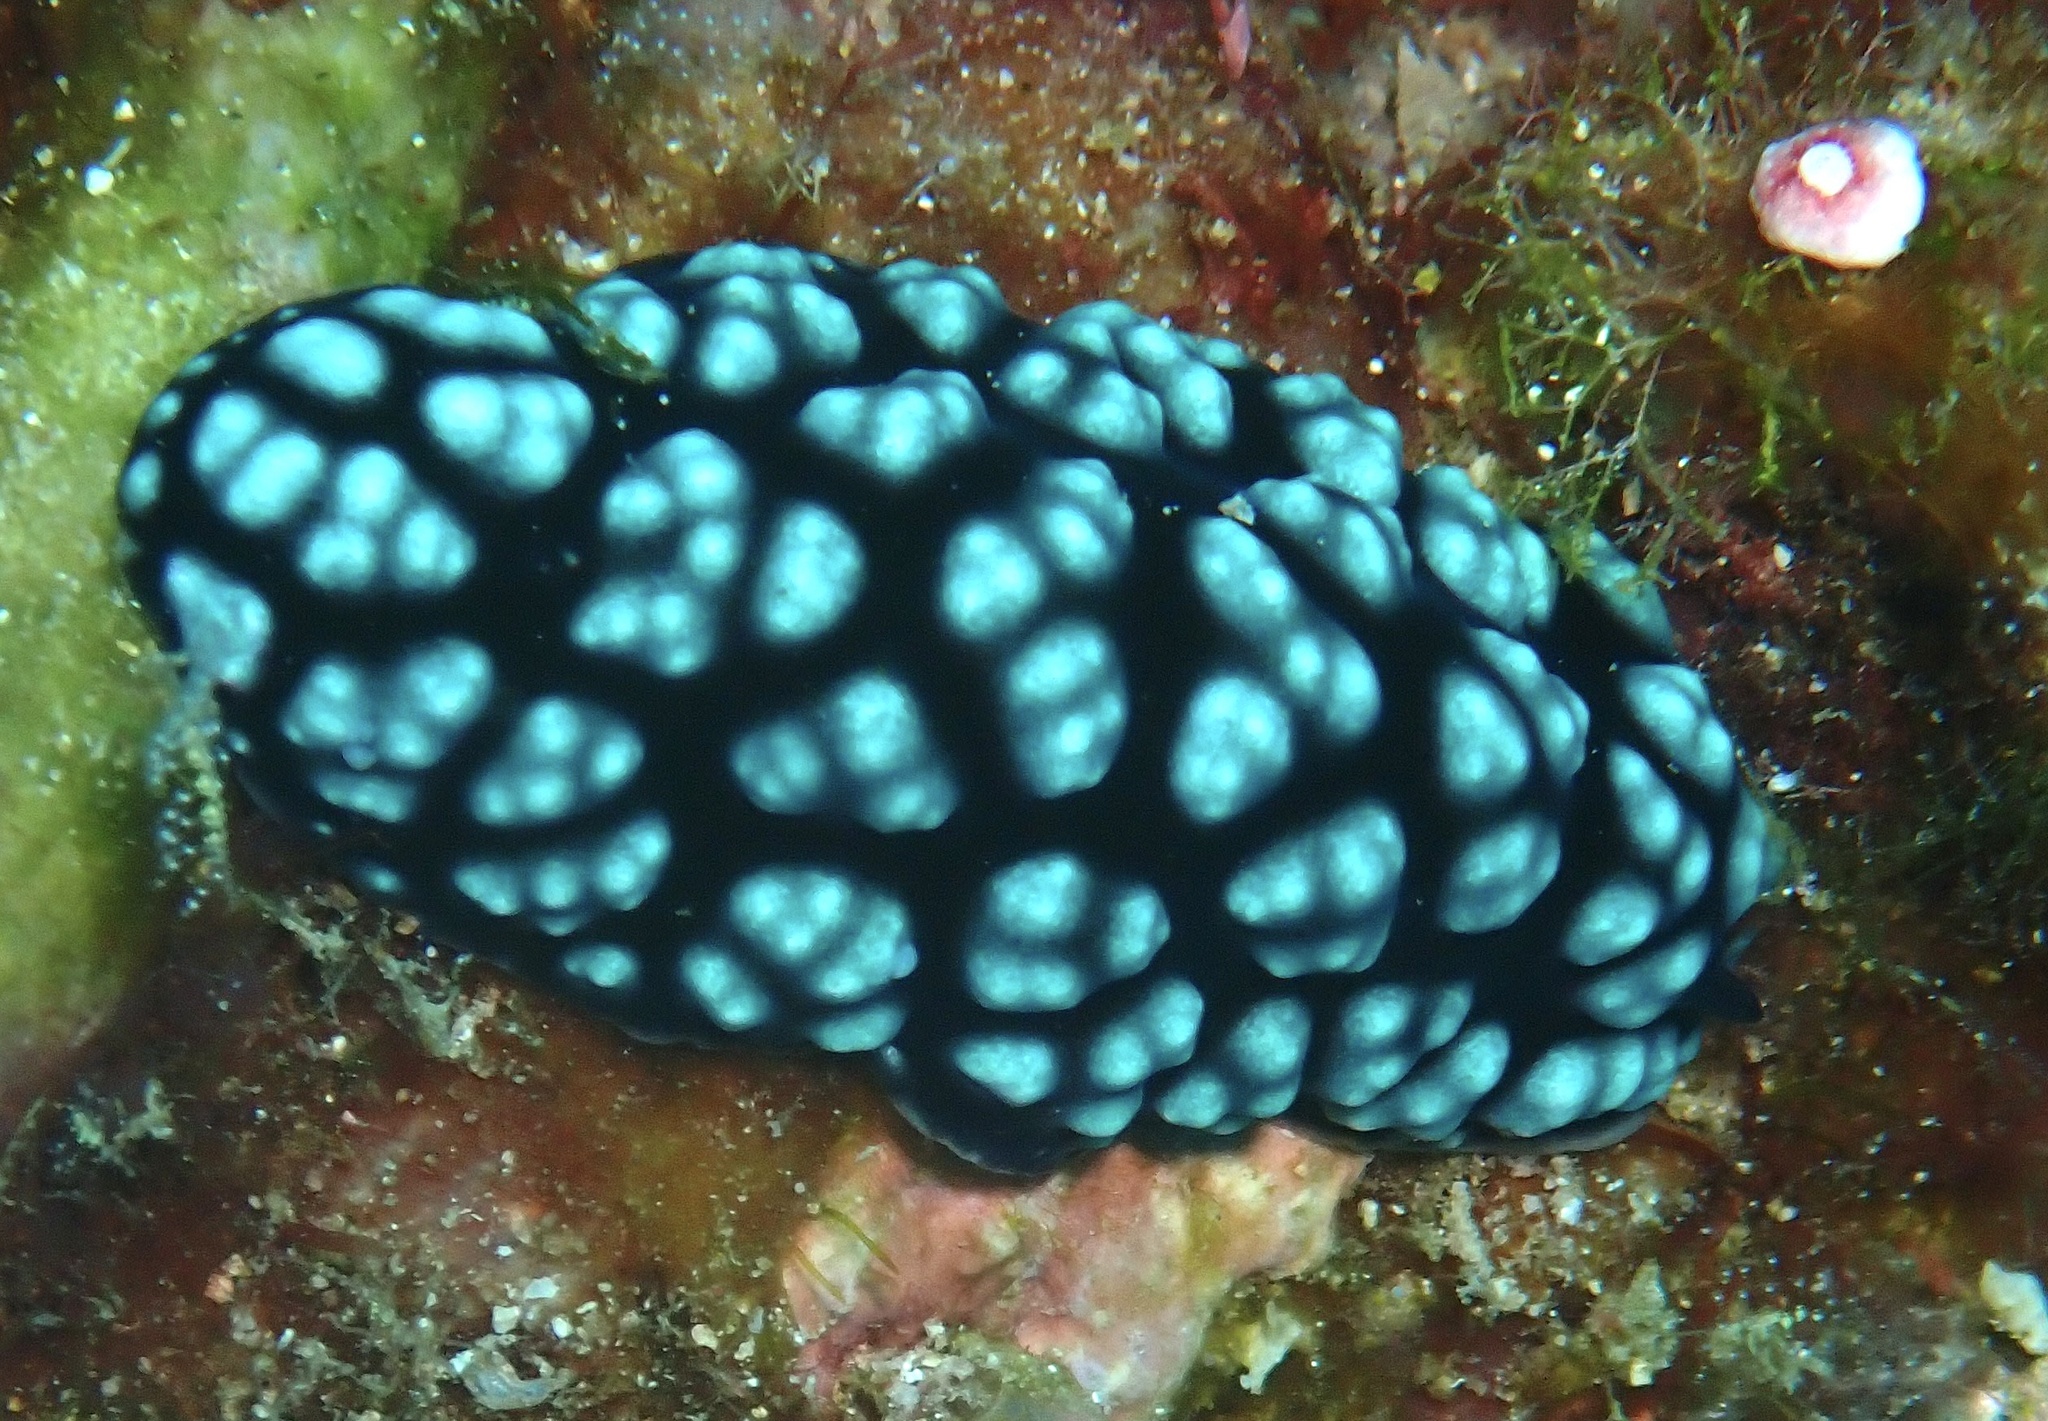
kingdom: Animalia
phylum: Mollusca
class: Gastropoda
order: Nudibranchia
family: Phyllidiidae
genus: Phyllidiella
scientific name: Phyllidiella pustulosa
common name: Pustular phyllidia
